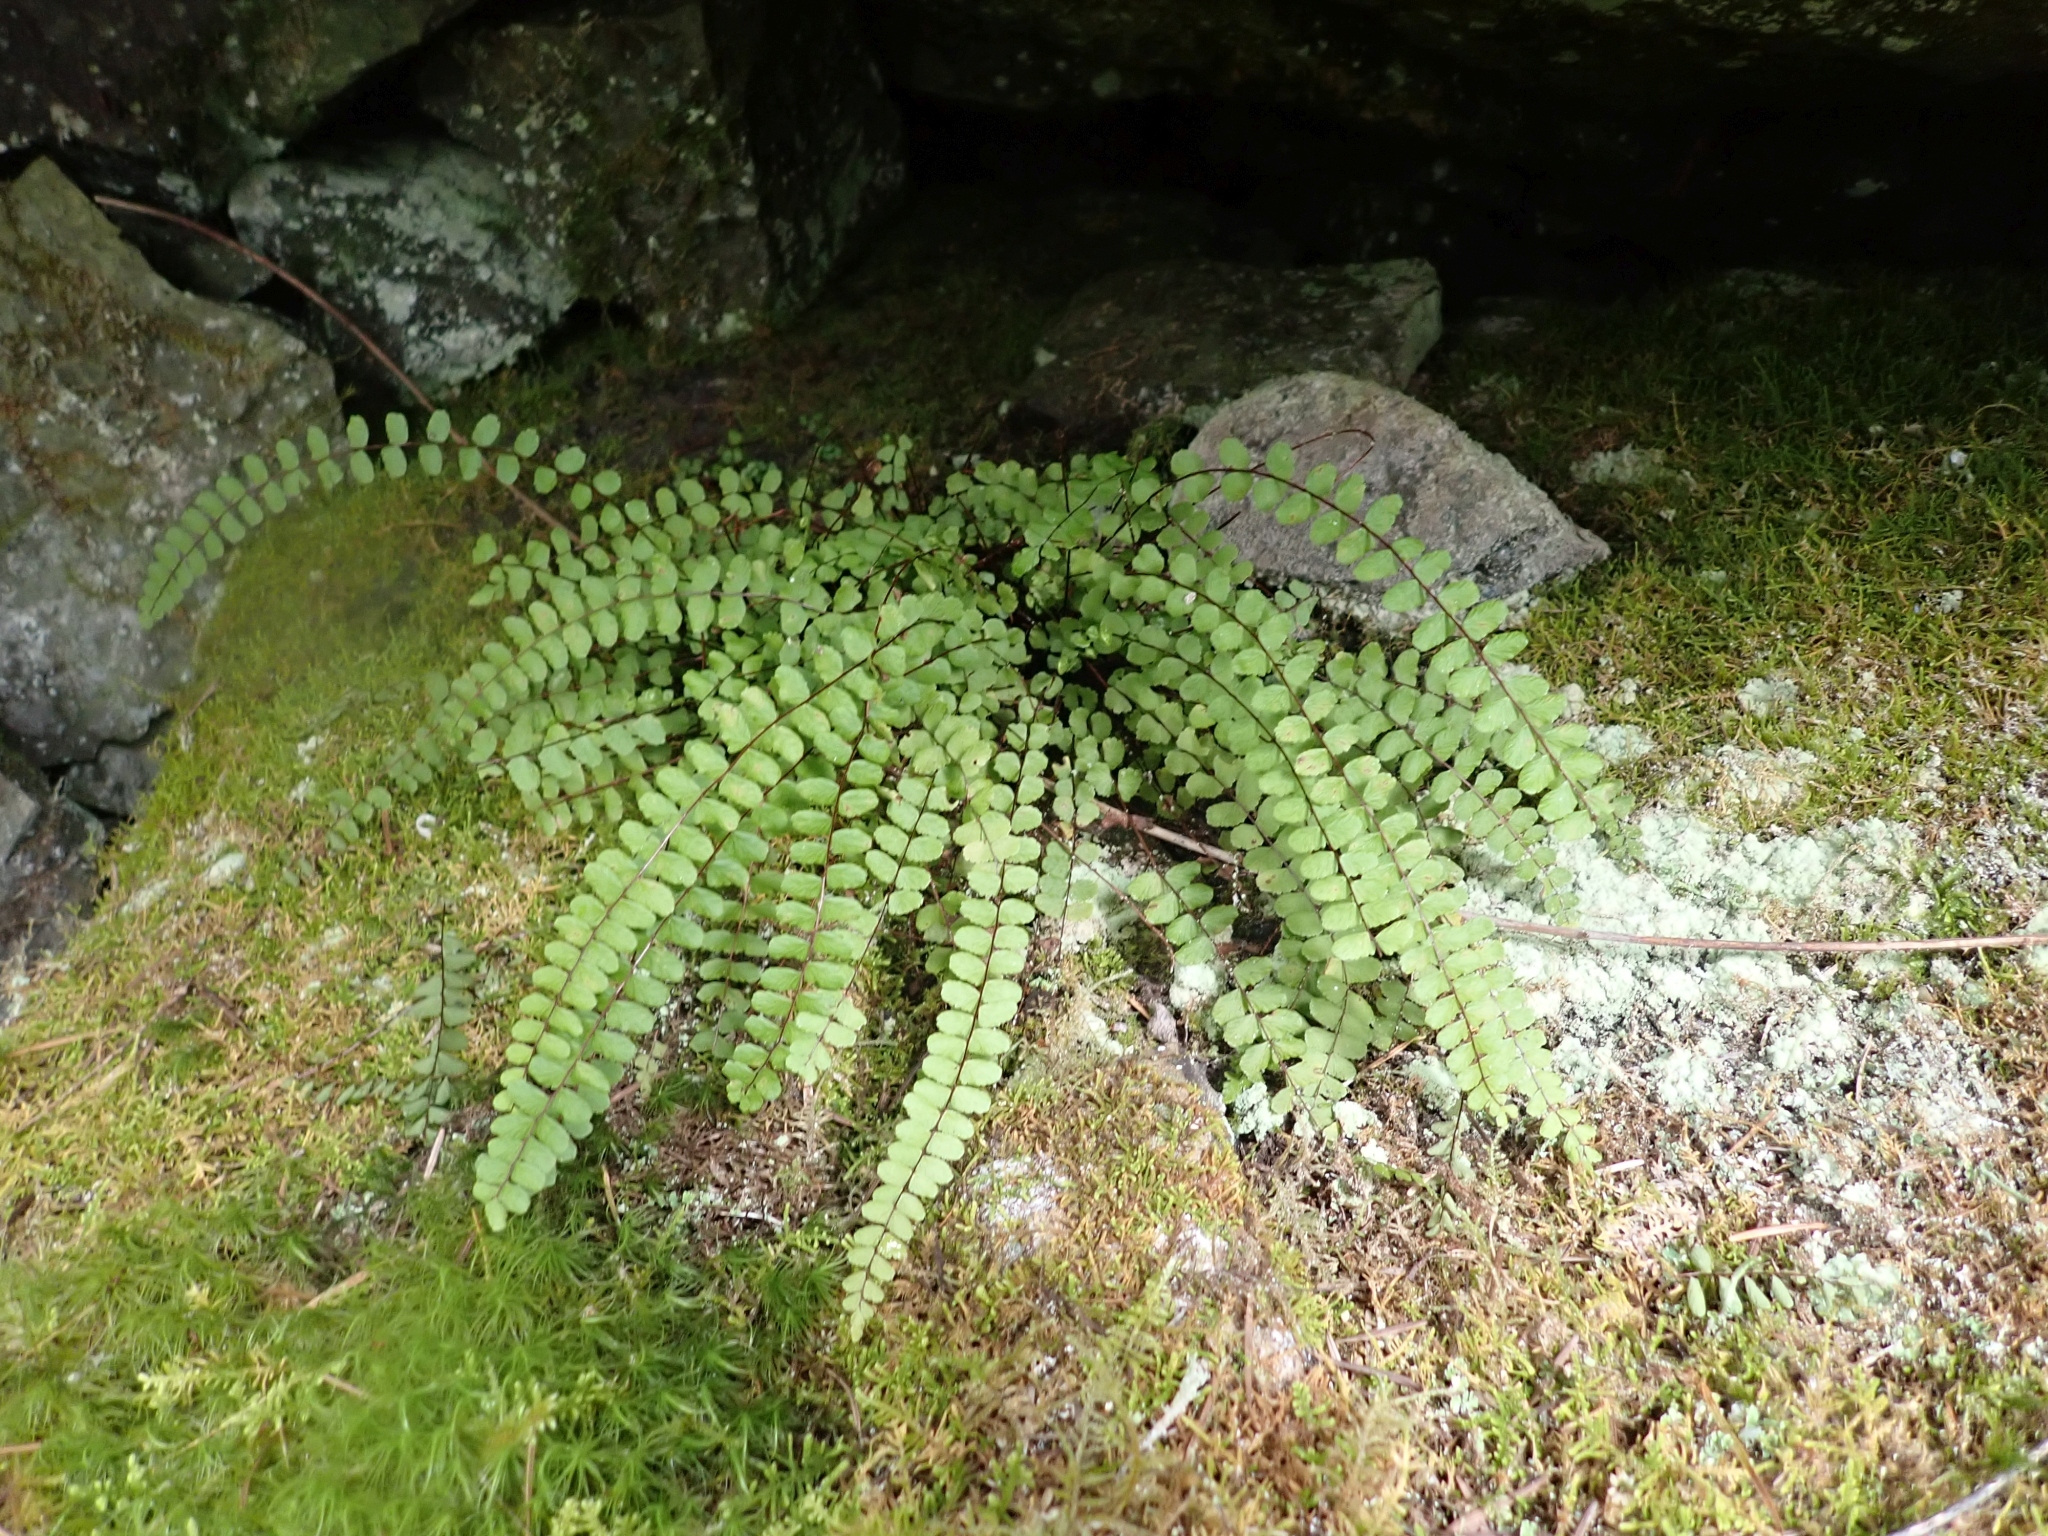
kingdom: Plantae
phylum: Tracheophyta
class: Polypodiopsida
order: Polypodiales
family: Aspleniaceae
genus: Asplenium
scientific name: Asplenium trichomanes
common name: Maidenhair spleenwort
